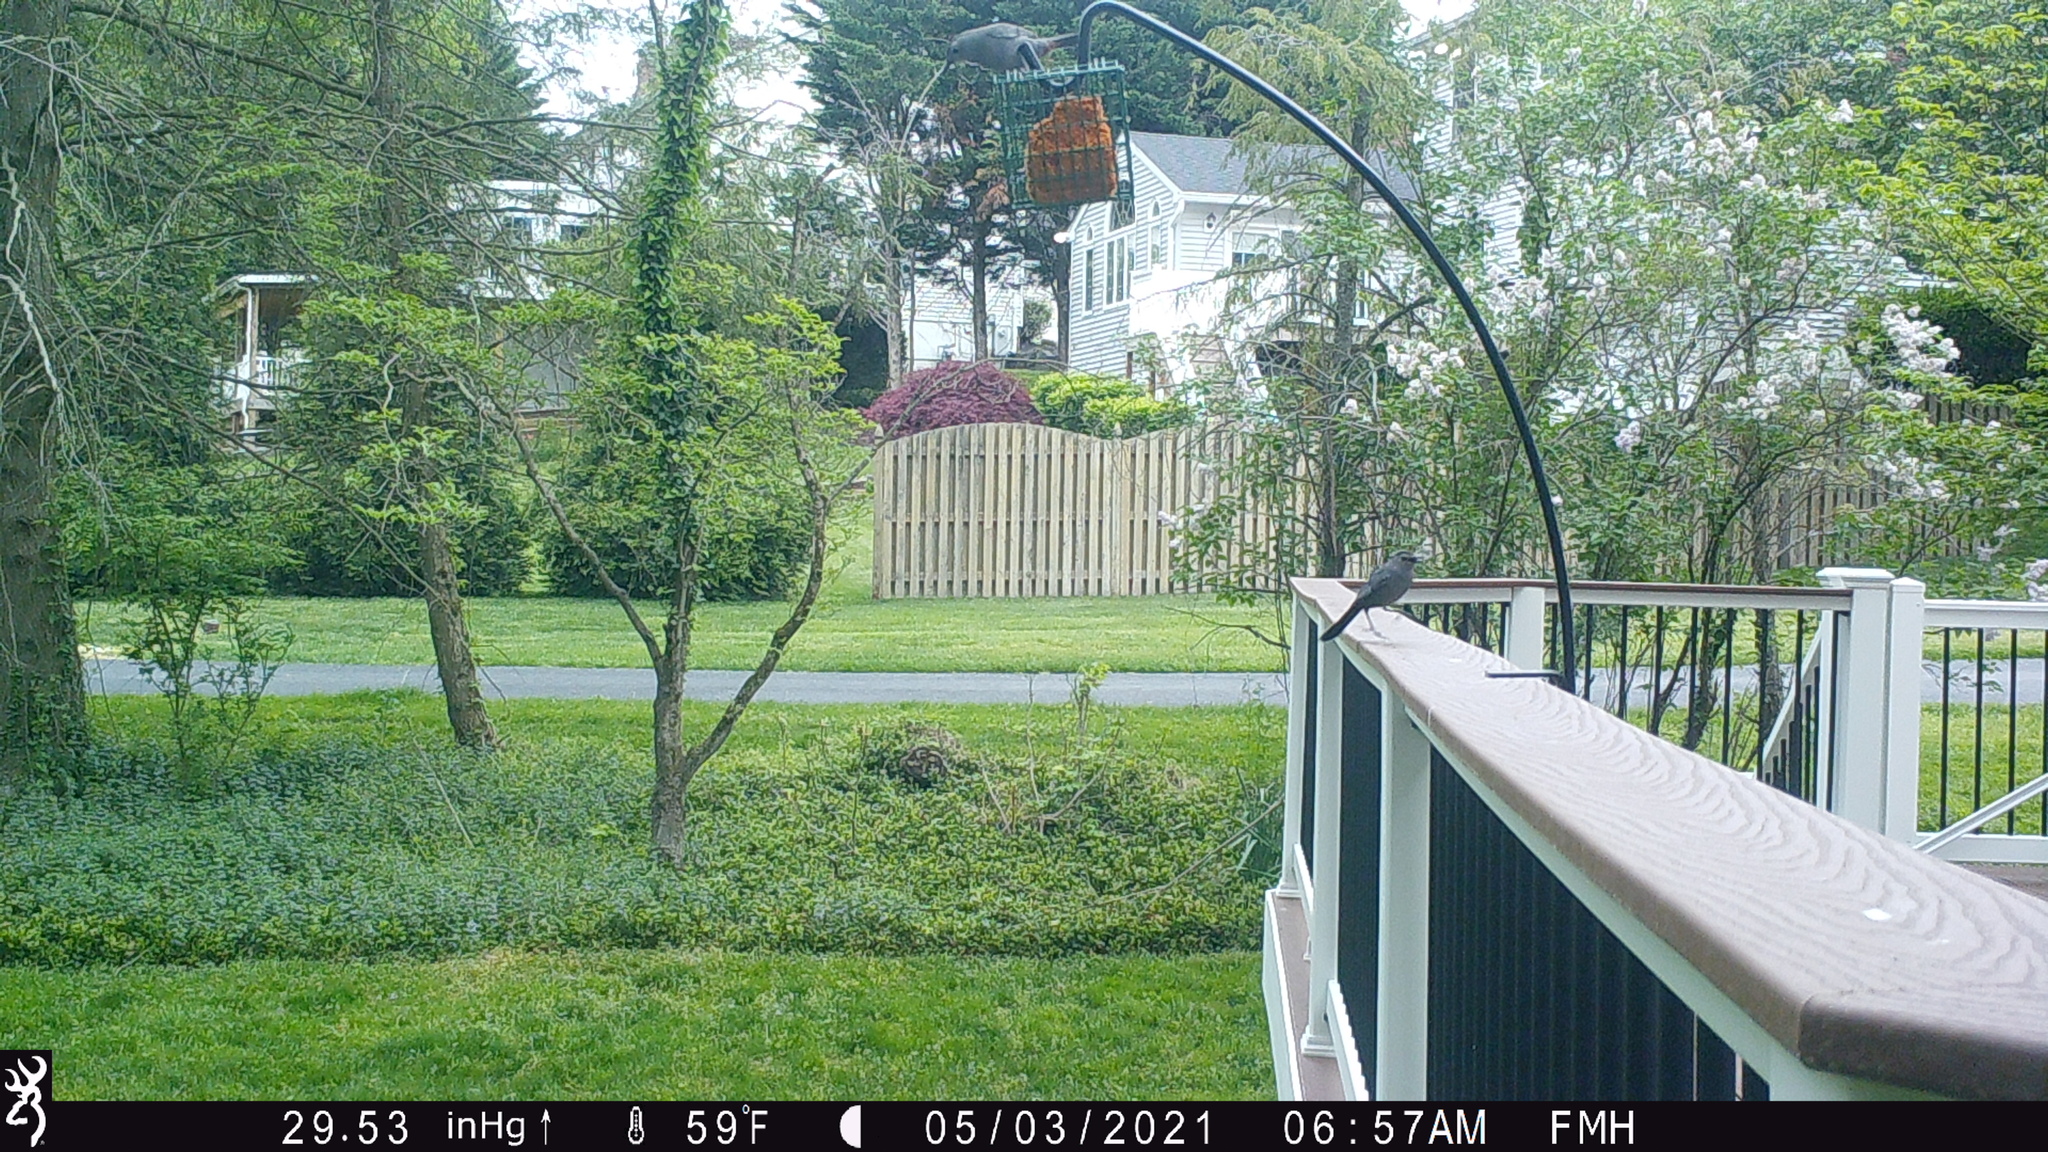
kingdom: Animalia
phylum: Chordata
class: Aves
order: Passeriformes
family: Mimidae
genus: Dumetella
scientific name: Dumetella carolinensis
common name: Gray catbird
